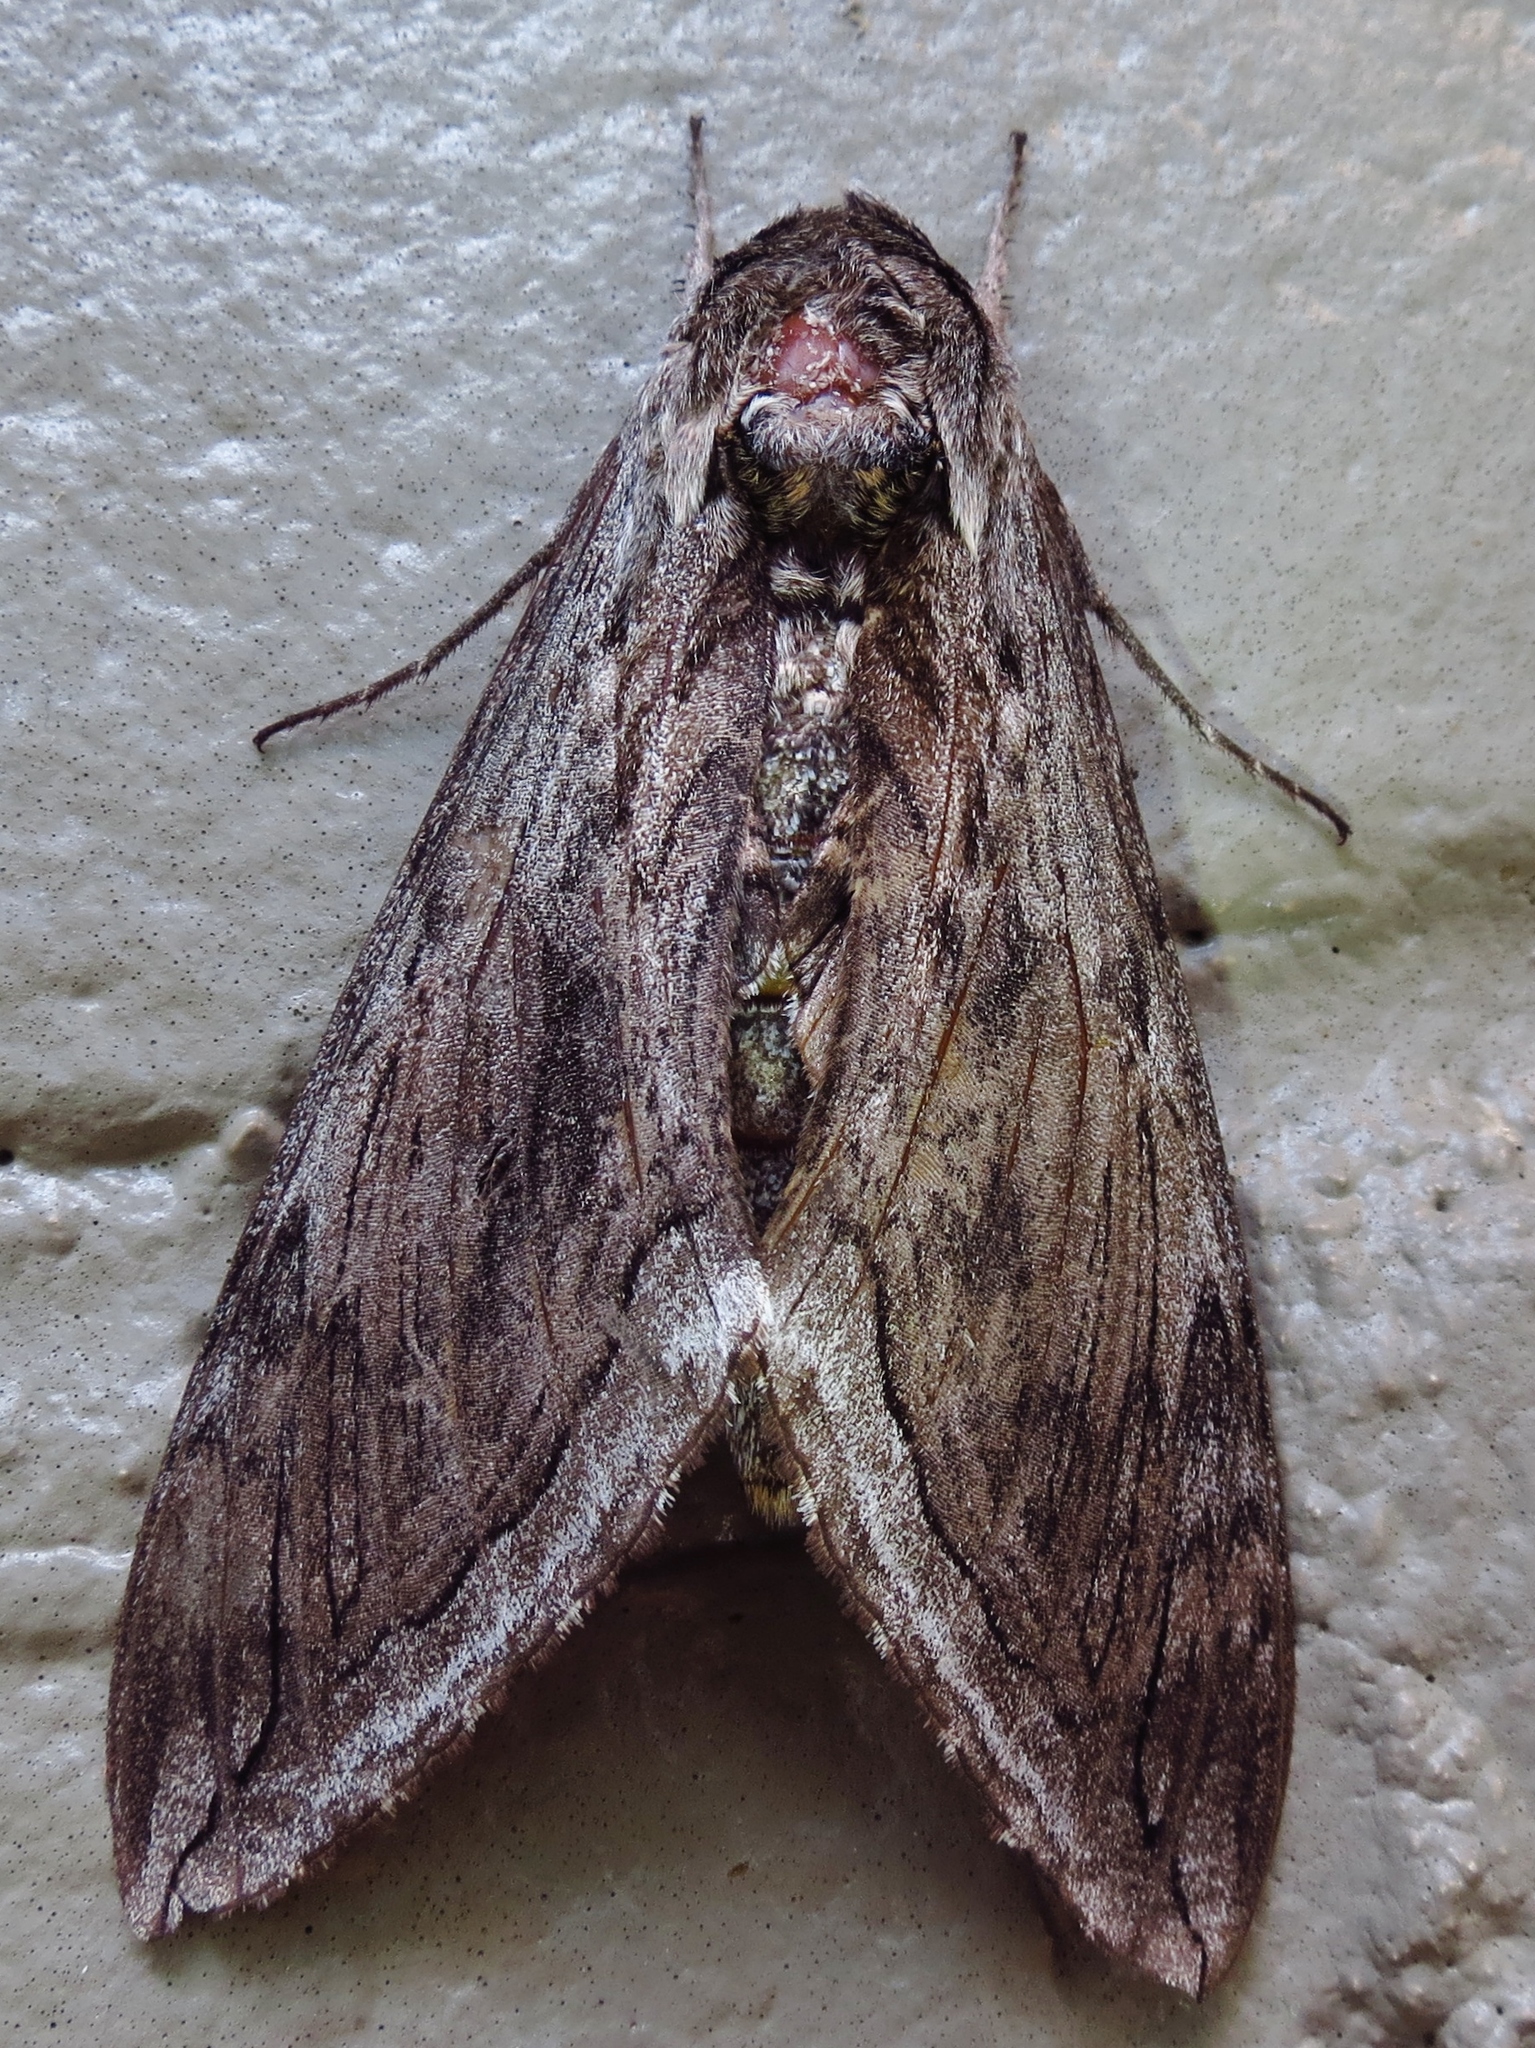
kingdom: Animalia
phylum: Arthropoda
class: Insecta
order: Lepidoptera
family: Sphingidae
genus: Manduca
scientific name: Manduca quinquemaculatus
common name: Five-spotted hawk-moth
